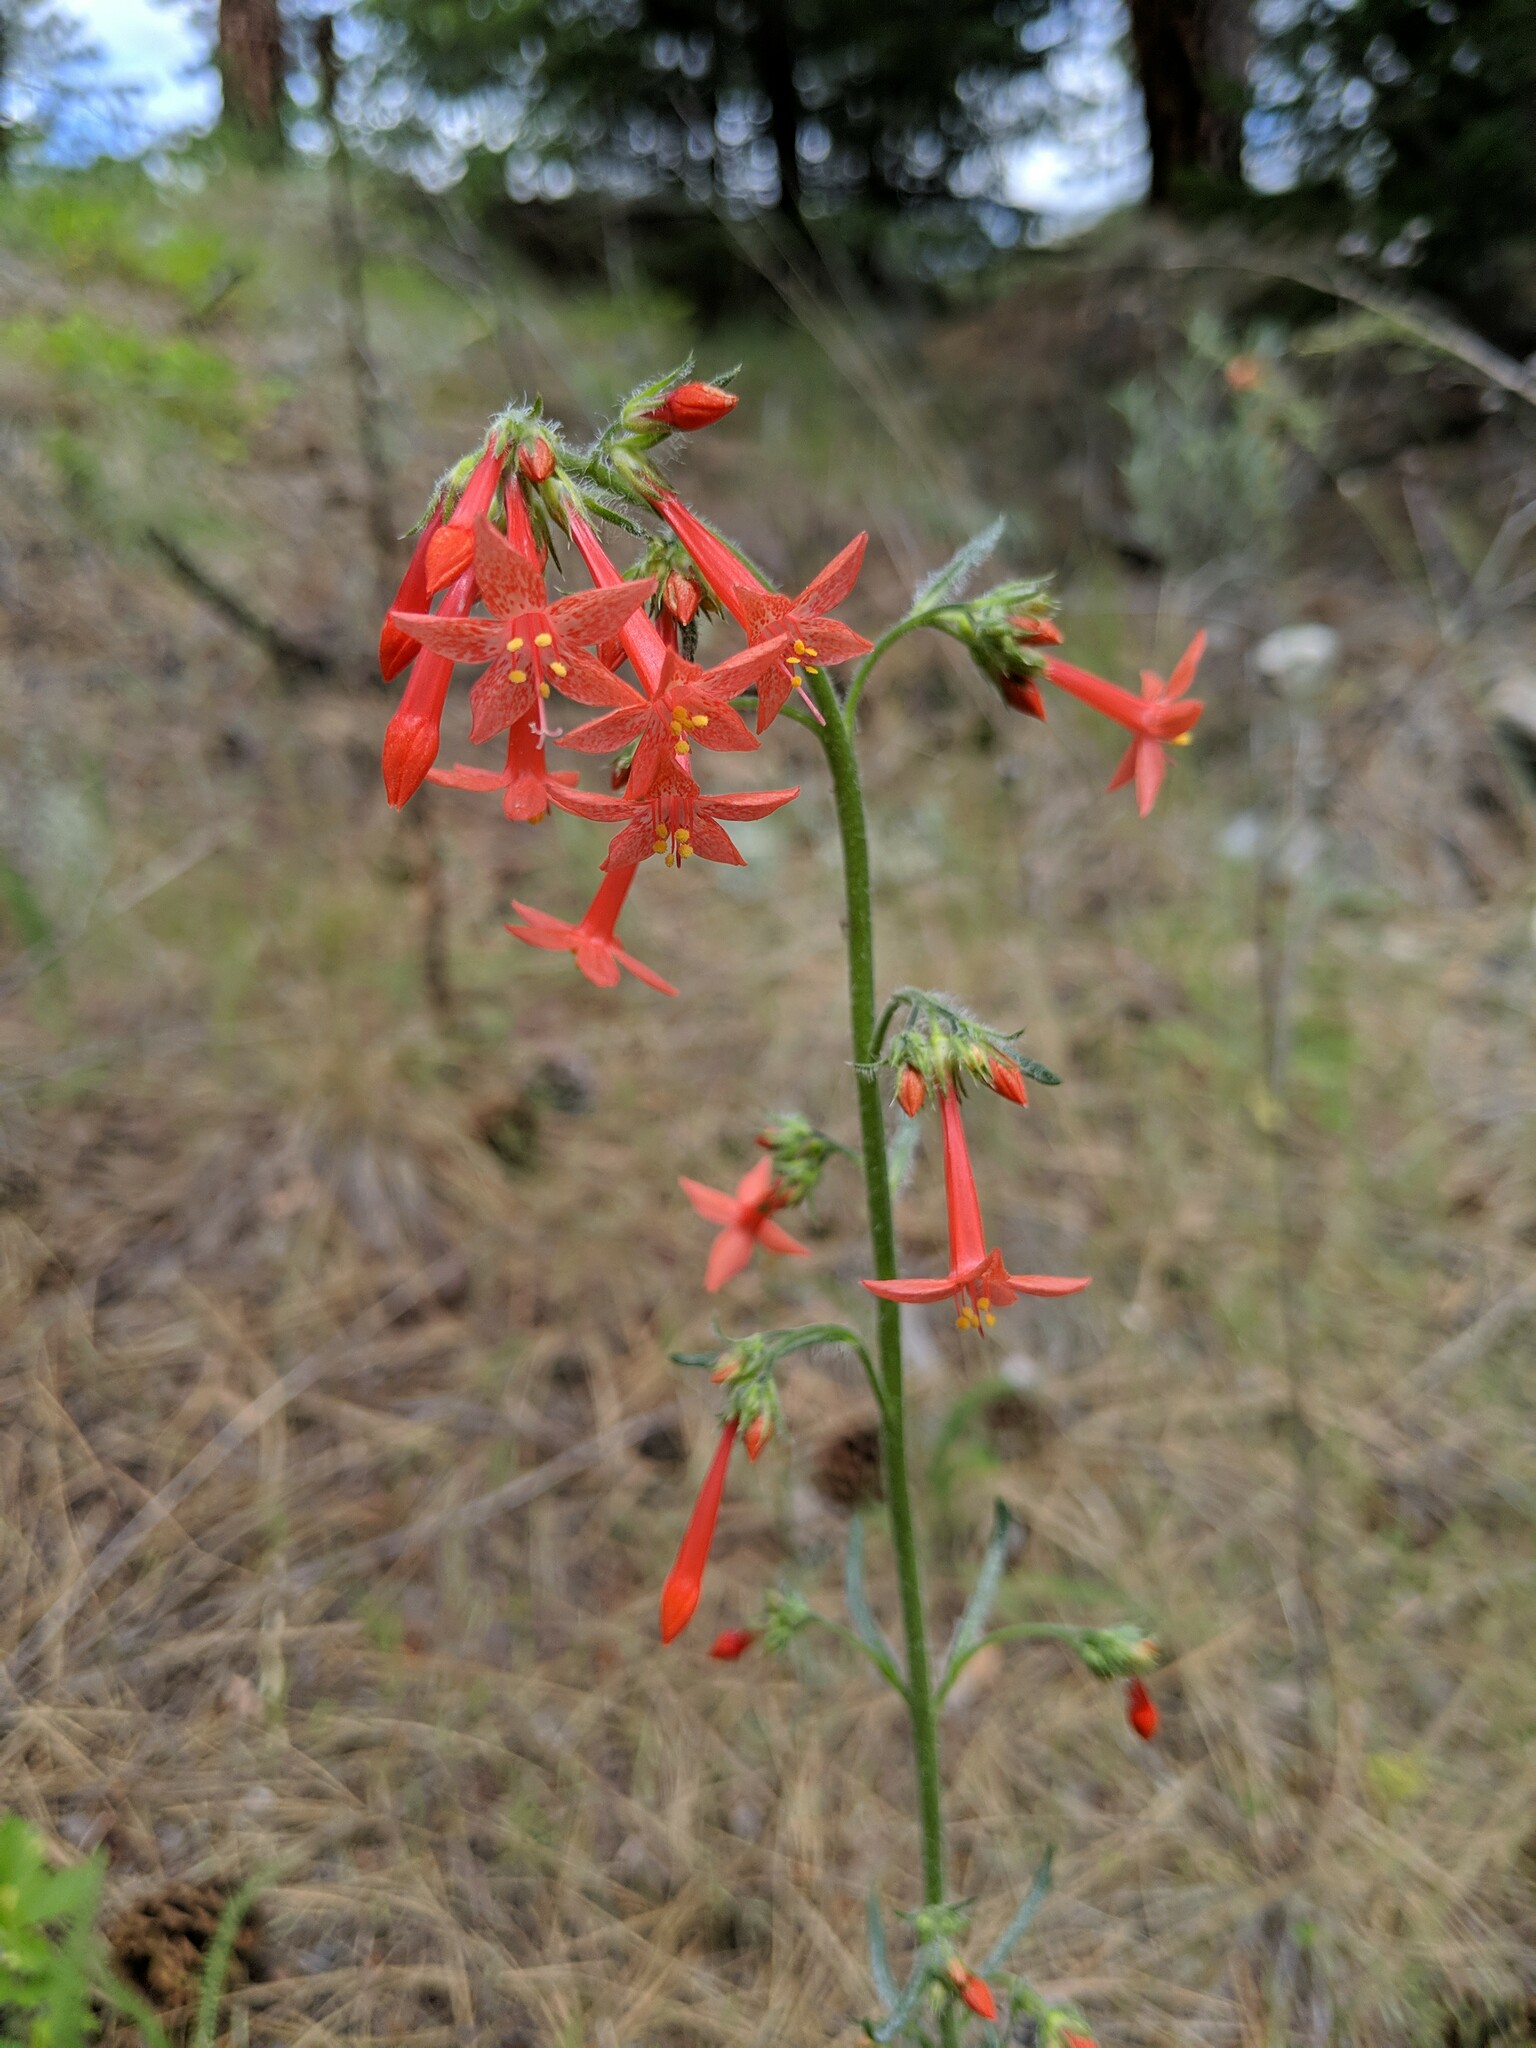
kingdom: Plantae
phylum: Tracheophyta
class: Magnoliopsida
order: Ericales
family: Polemoniaceae
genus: Ipomopsis
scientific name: Ipomopsis aggregata
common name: Scarlet gilia
